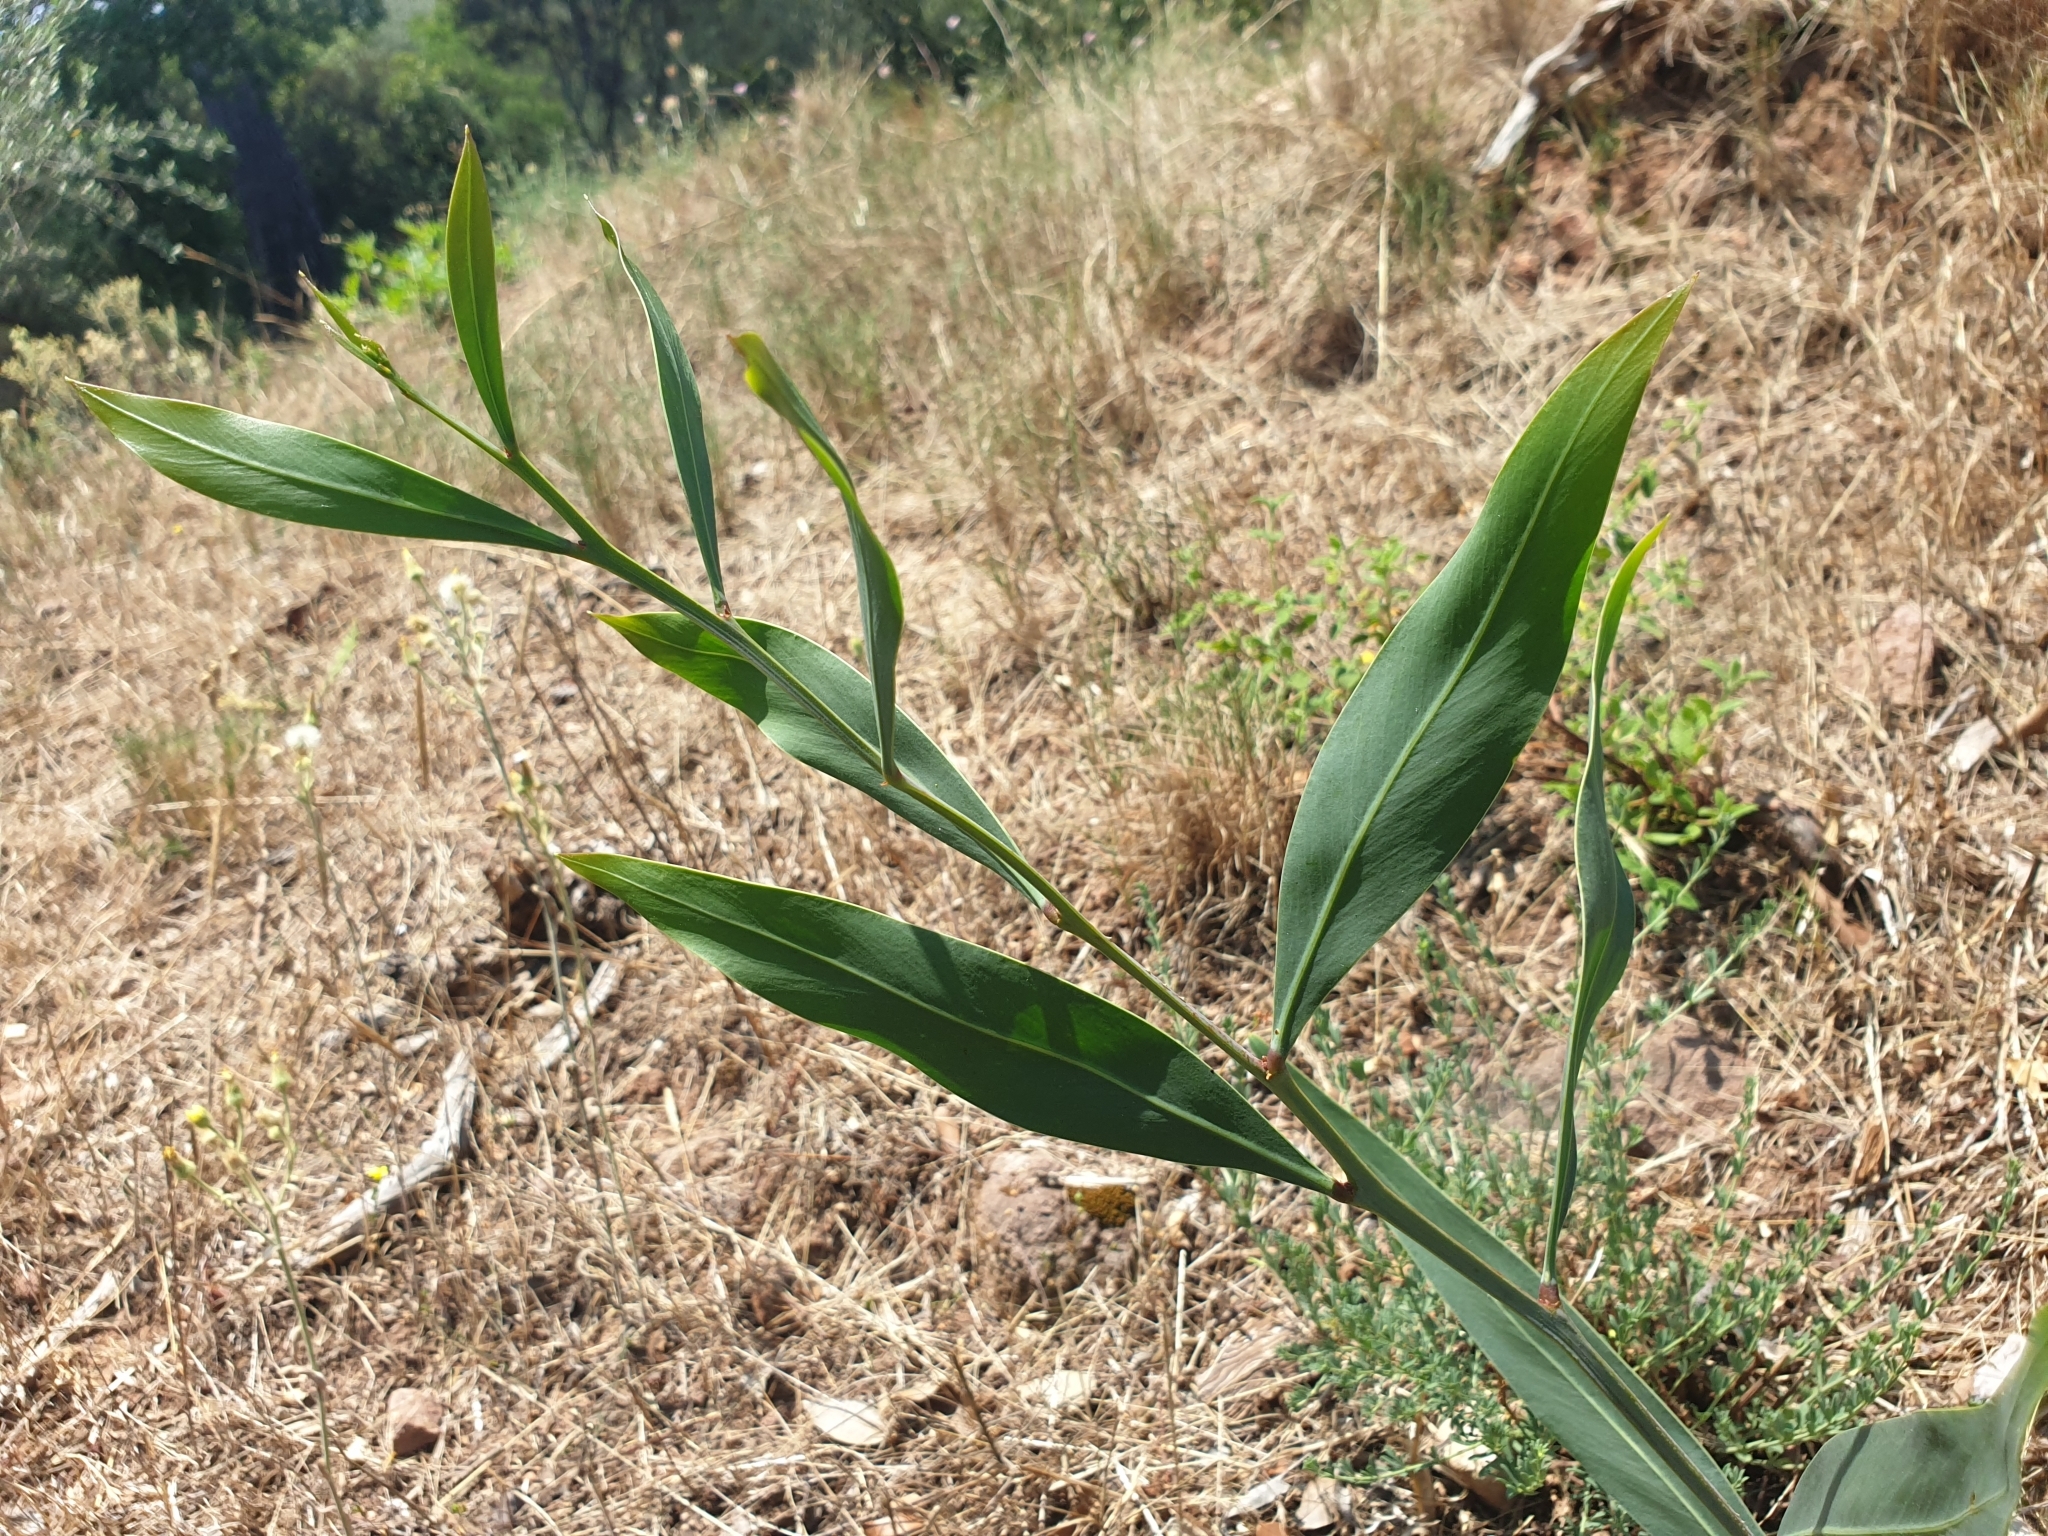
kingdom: Plantae
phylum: Tracheophyta
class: Magnoliopsida
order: Fabales
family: Fabaceae
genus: Acacia
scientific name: Acacia saligna
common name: Orange wattle
